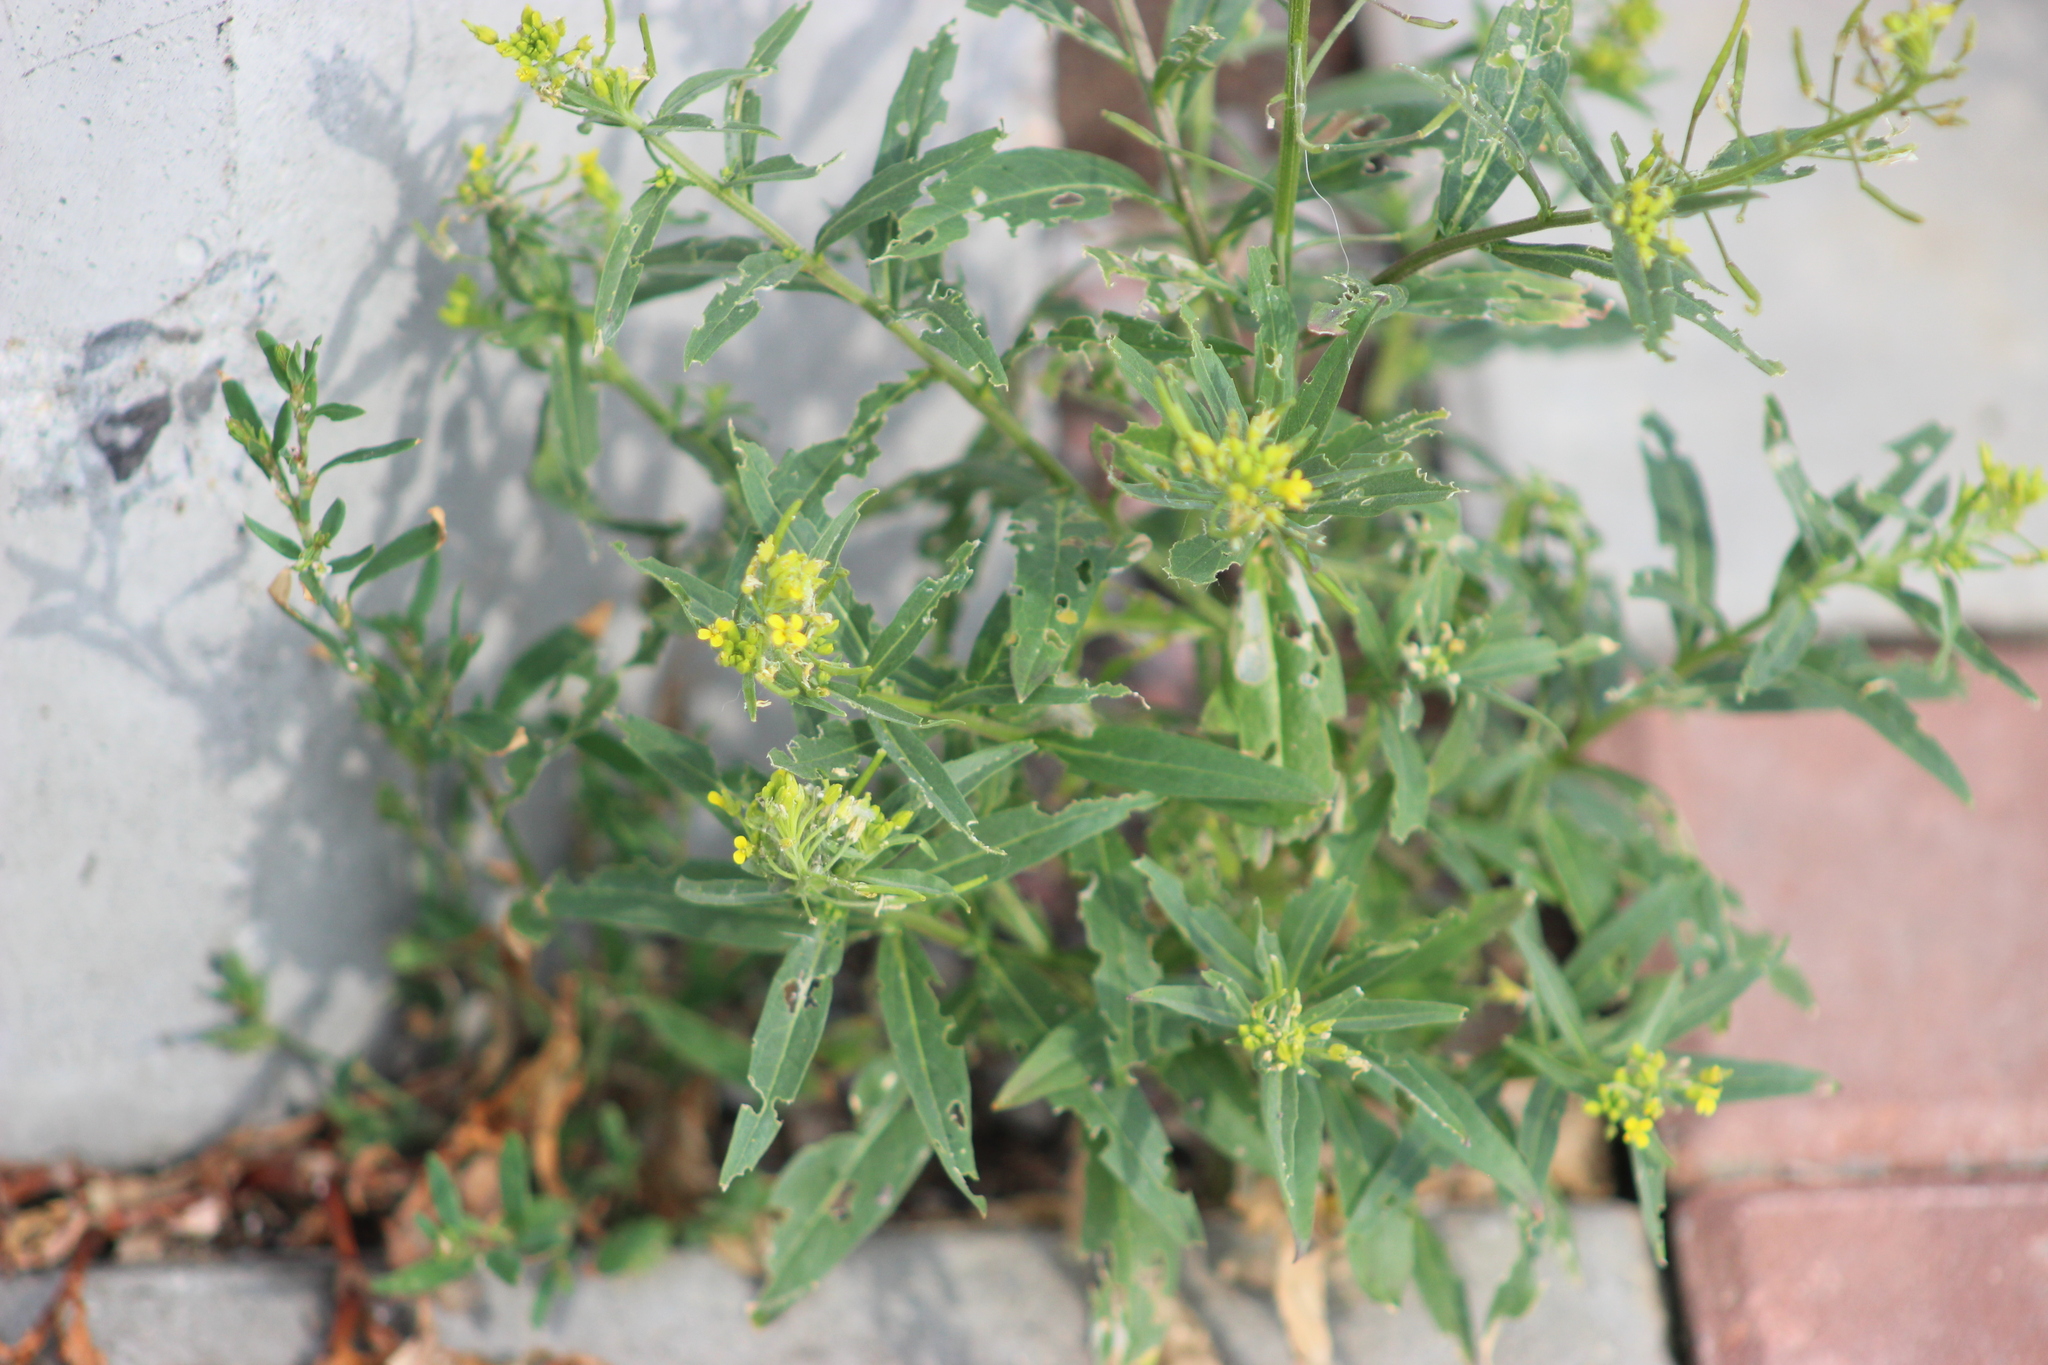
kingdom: Plantae
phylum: Tracheophyta
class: Magnoliopsida
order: Brassicales
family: Brassicaceae
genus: Erysimum
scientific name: Erysimum cheiranthoides
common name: Treacle mustard
